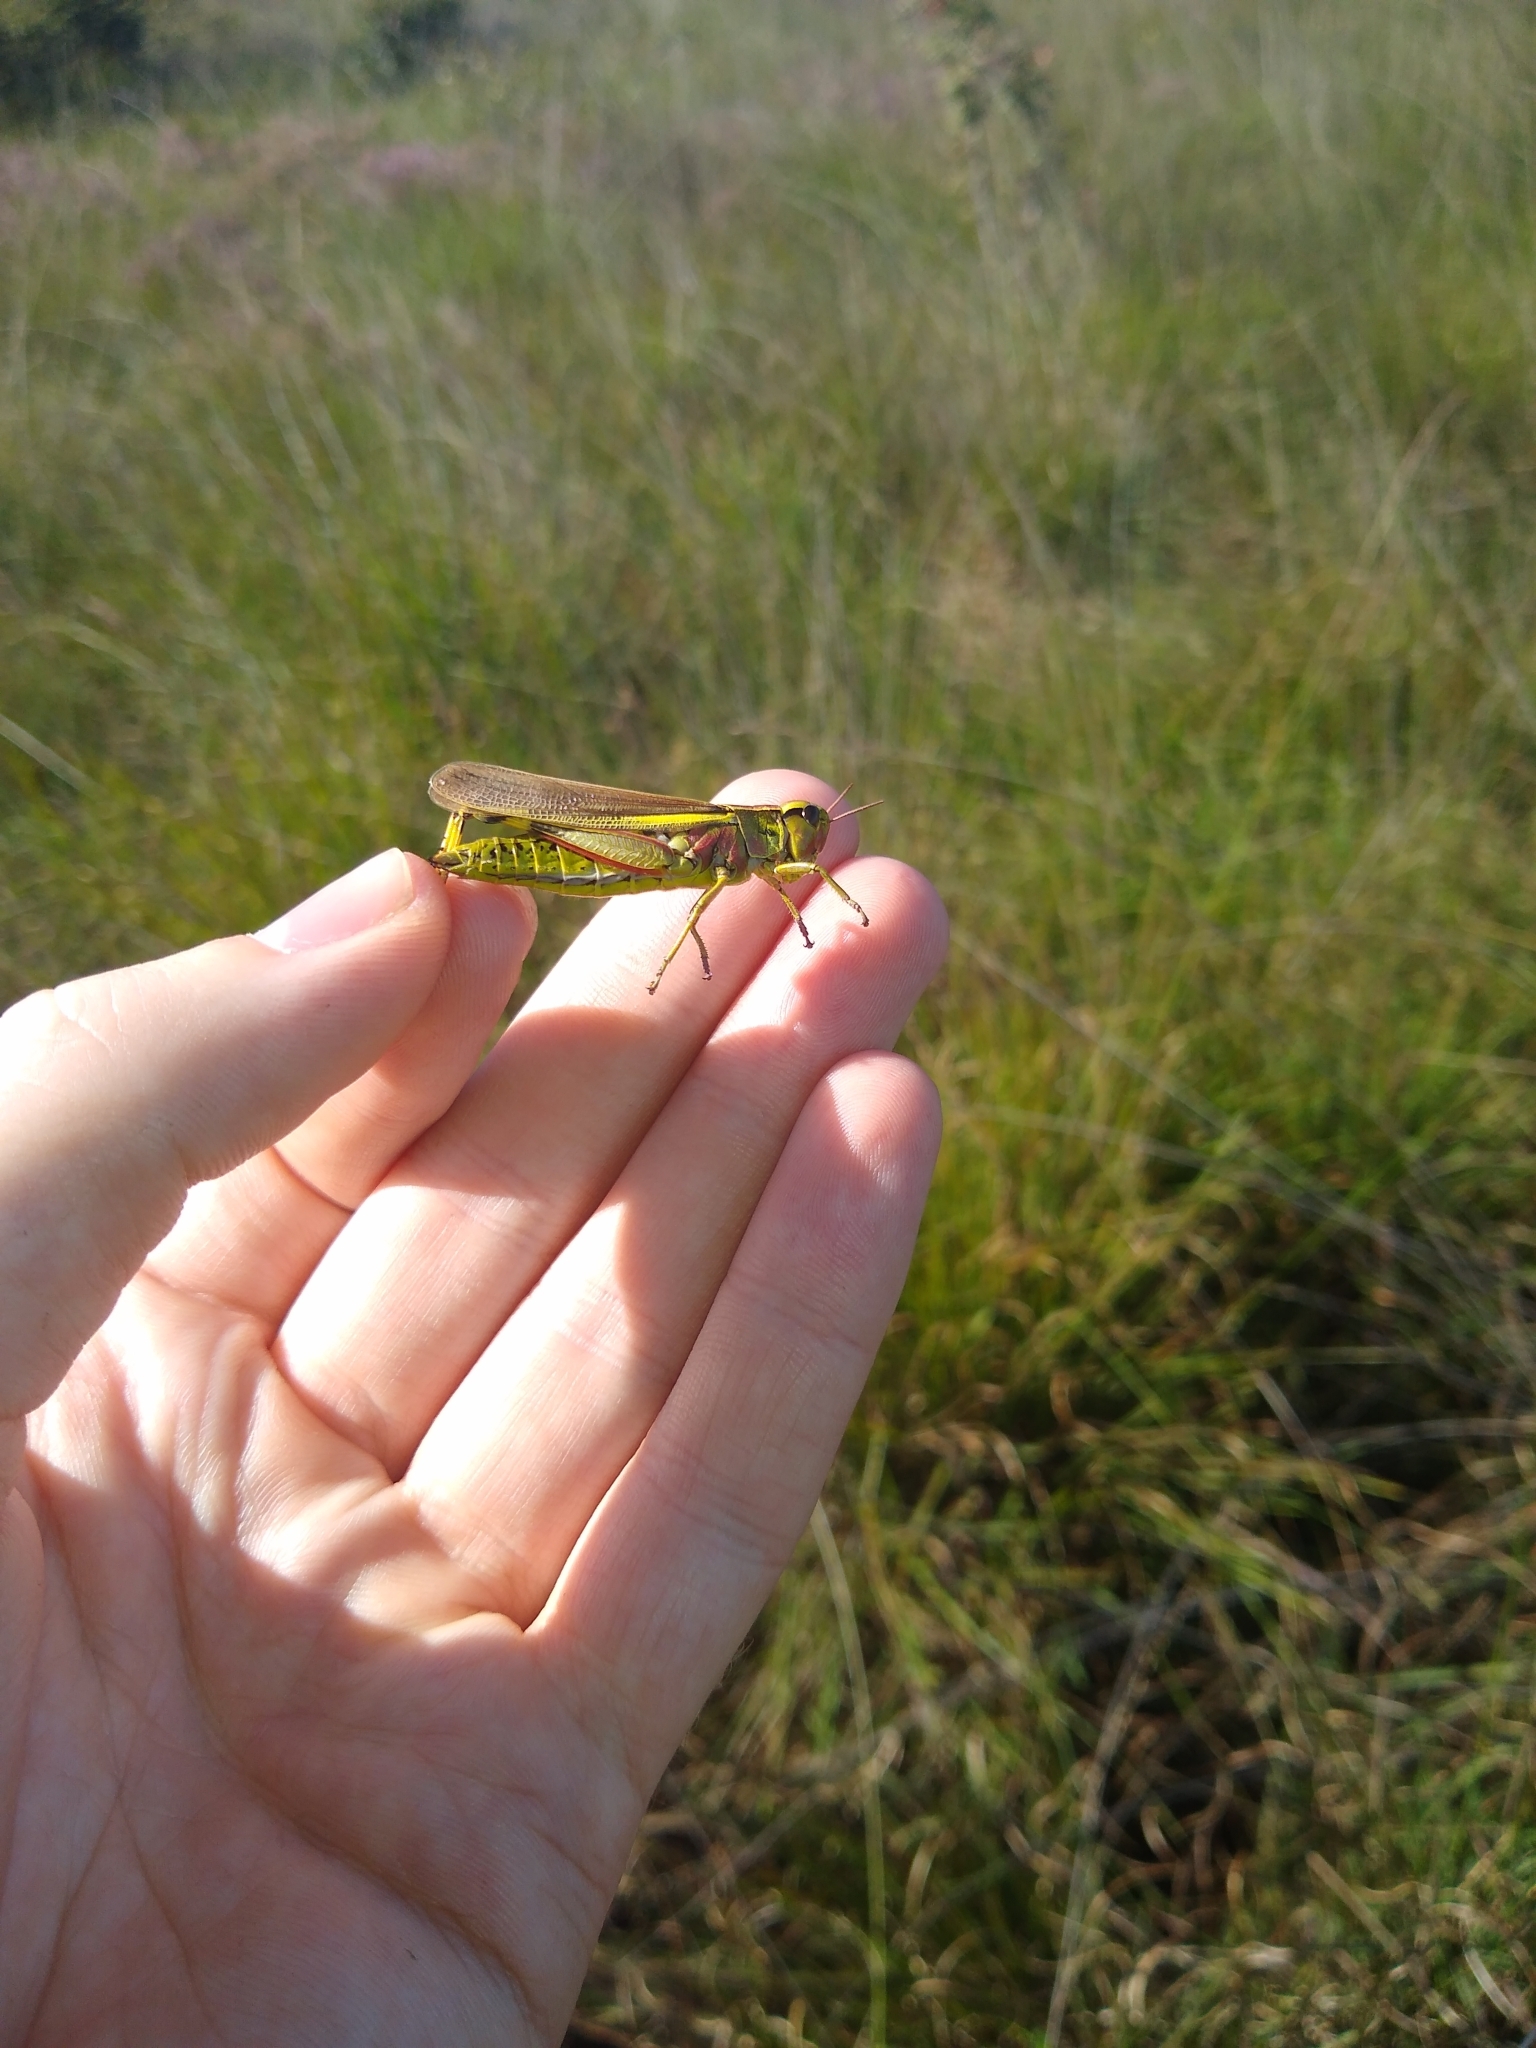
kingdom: Animalia
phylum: Arthropoda
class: Insecta
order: Orthoptera
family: Acrididae
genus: Stethophyma
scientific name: Stethophyma grossum
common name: Large marsh grasshopper
